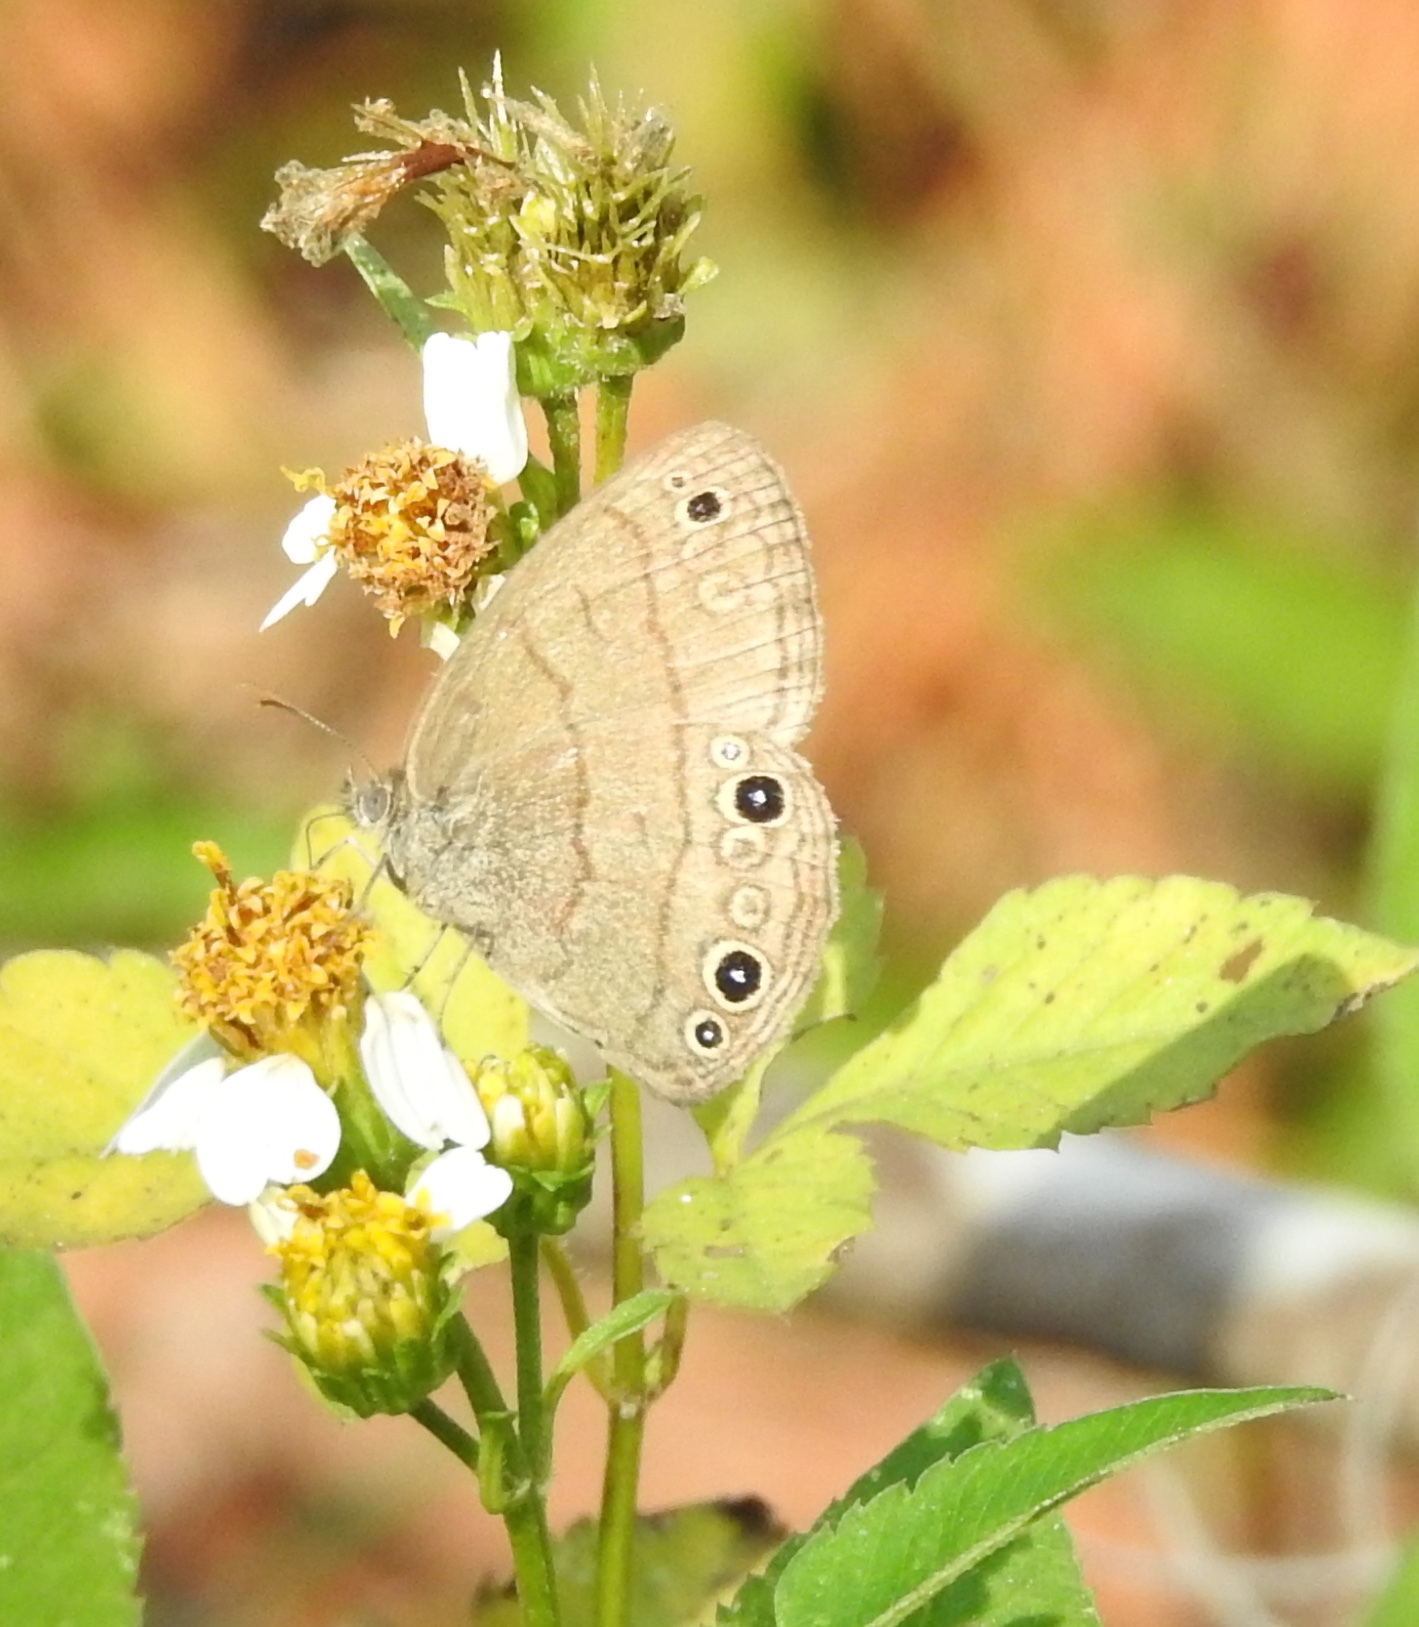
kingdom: Animalia
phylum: Arthropoda
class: Insecta
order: Lepidoptera
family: Nymphalidae
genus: Hermeuptychia
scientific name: Hermeuptychia hermes
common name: Hermes satyr
